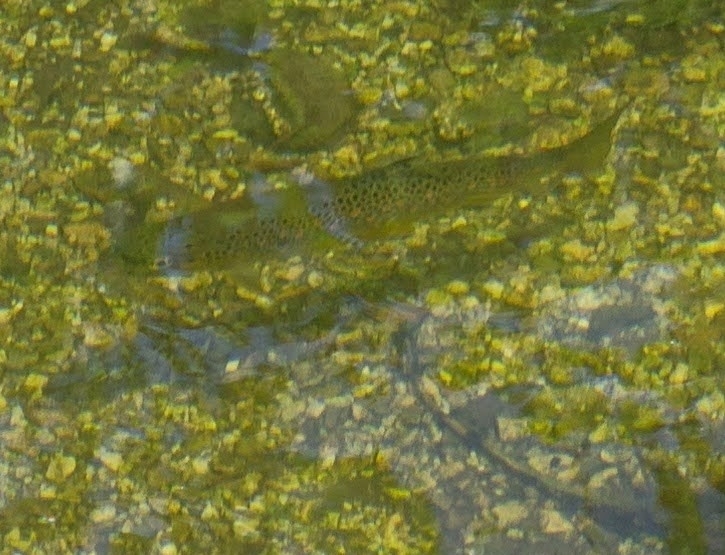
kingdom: Animalia
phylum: Chordata
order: Salmoniformes
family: Salmonidae
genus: Salmo
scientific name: Salmo trutta
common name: Brown trout
